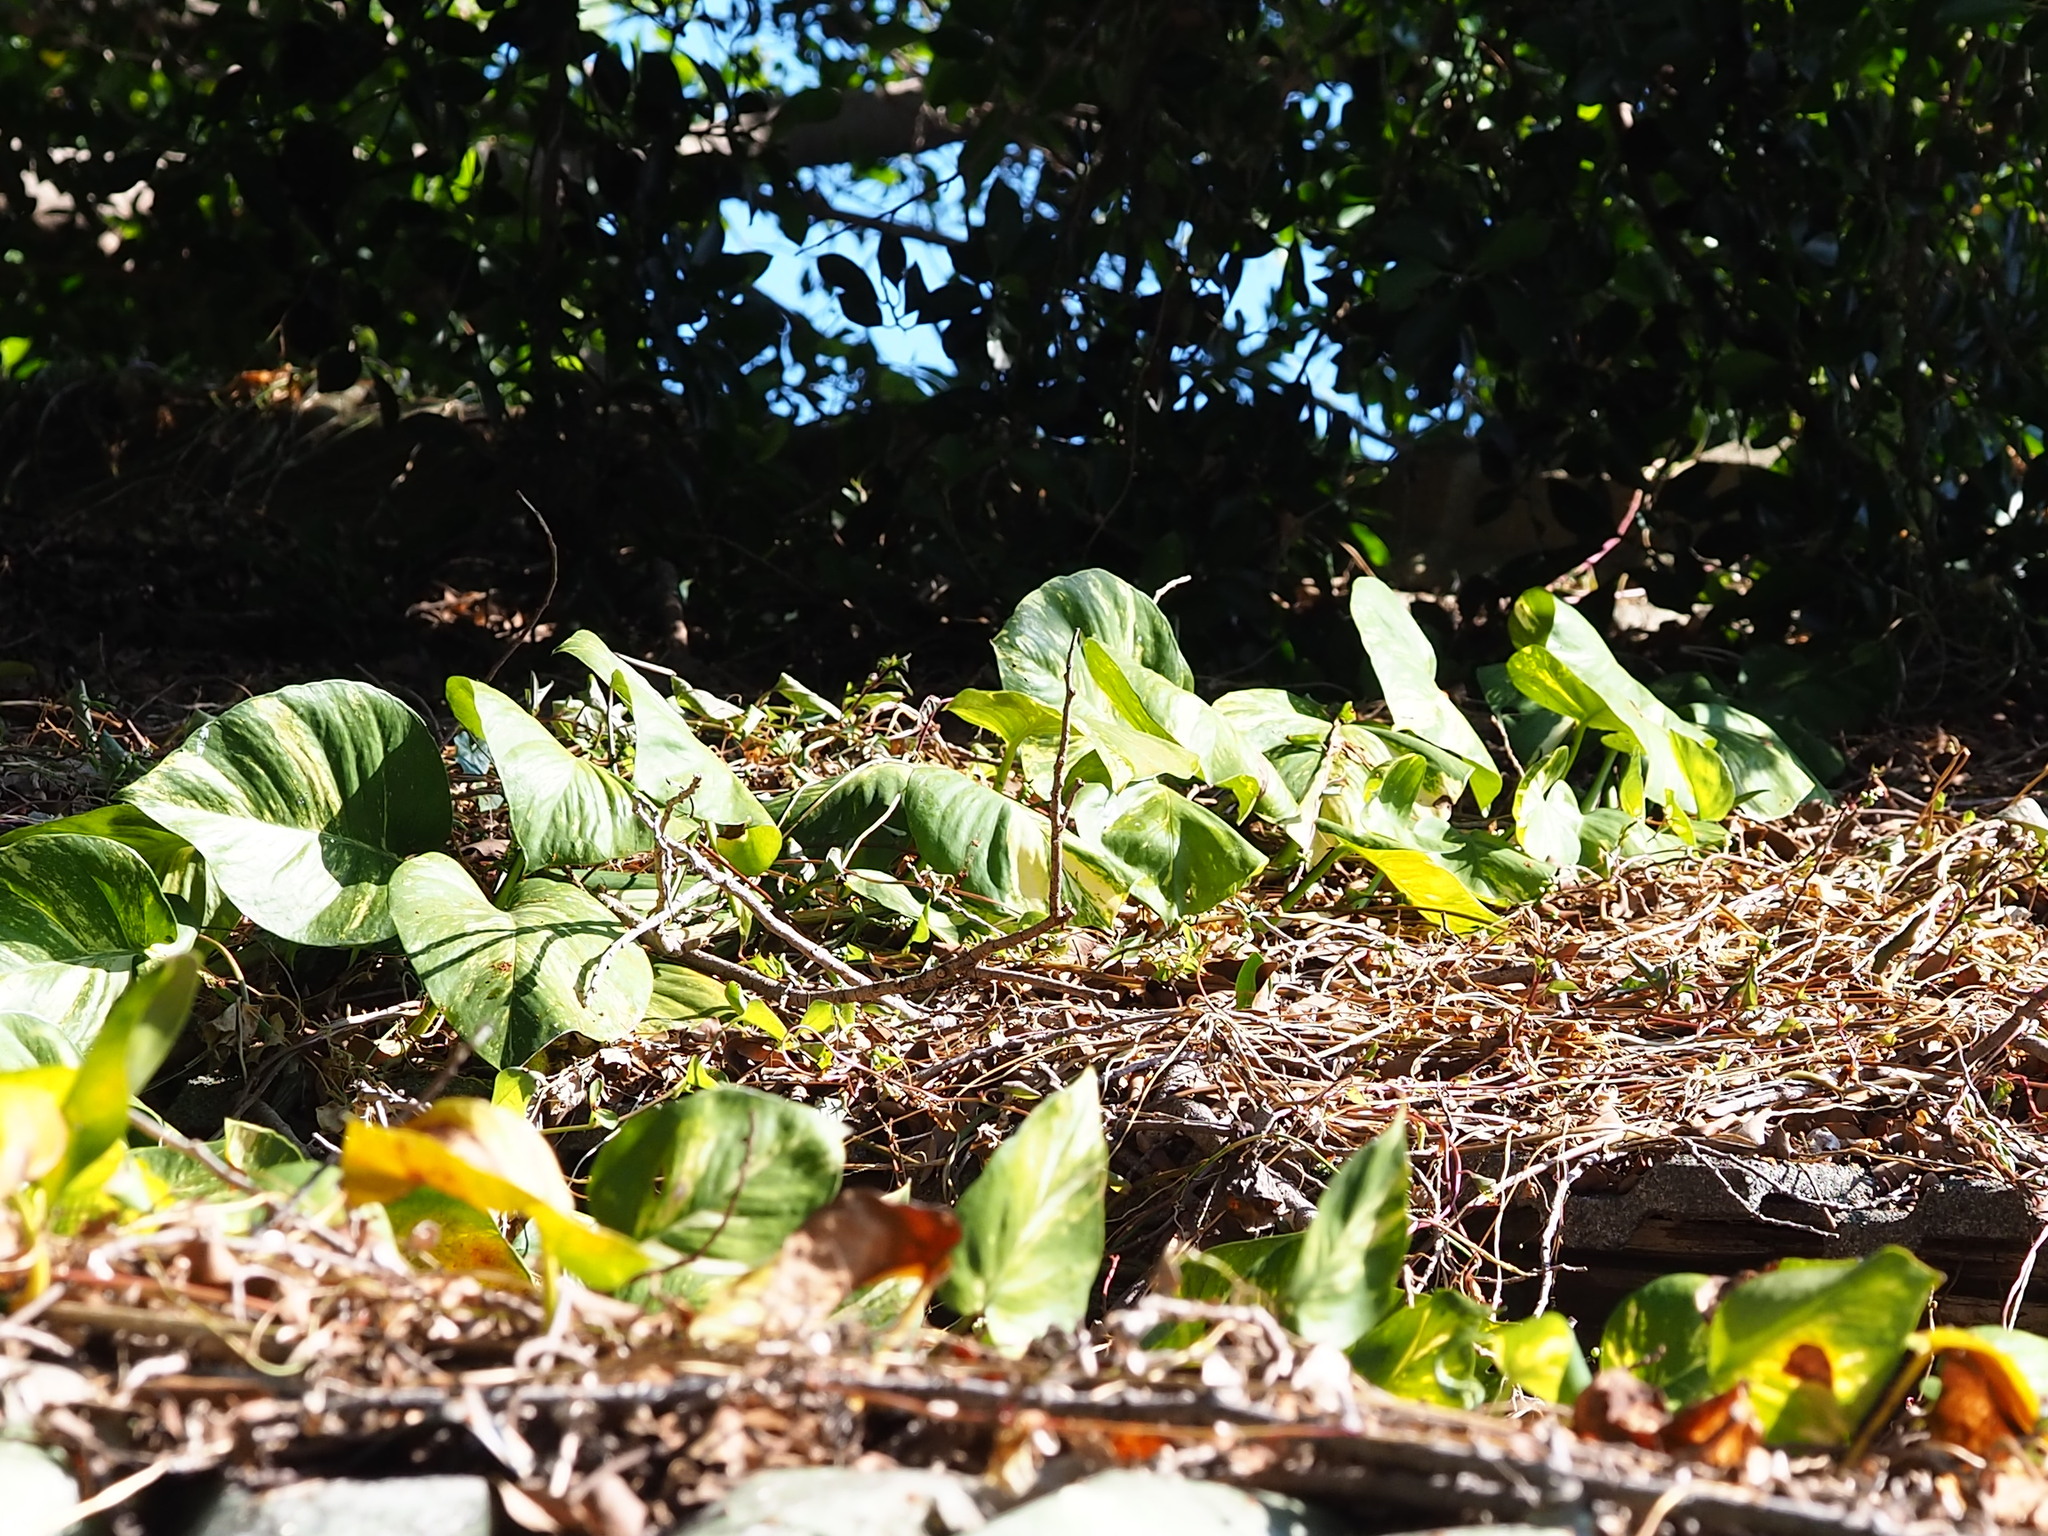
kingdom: Plantae
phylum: Tracheophyta
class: Liliopsida
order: Alismatales
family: Araceae
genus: Epipremnum
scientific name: Epipremnum aureum
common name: Golden hunter's-robe
